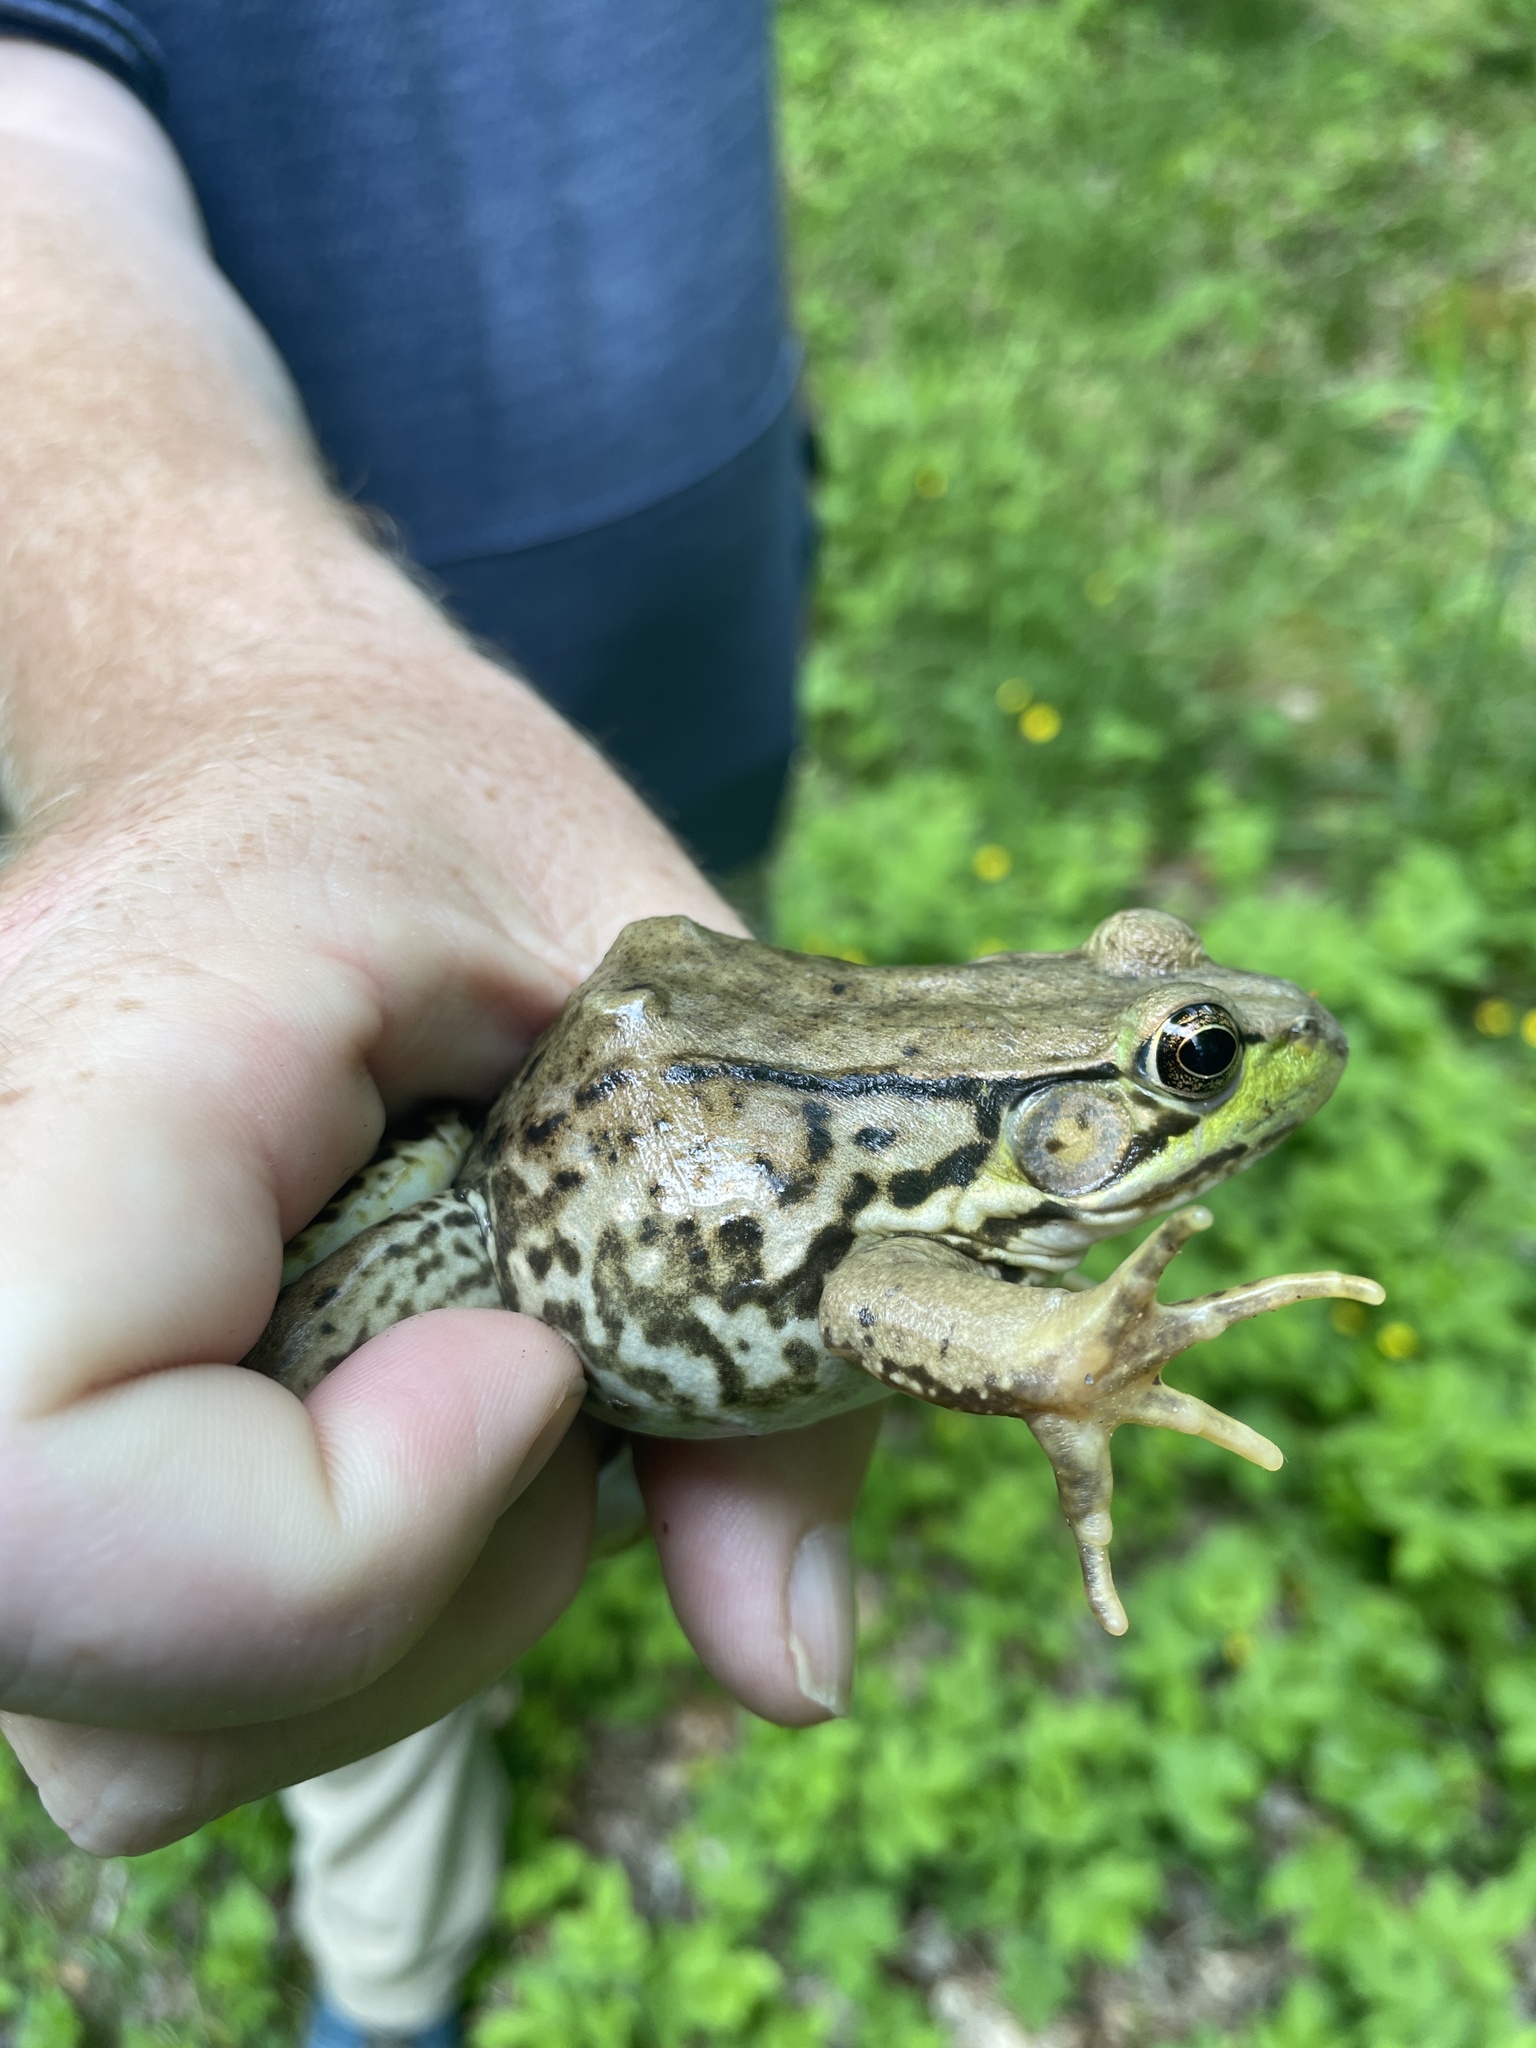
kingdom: Animalia
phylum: Chordata
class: Amphibia
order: Anura
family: Ranidae
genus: Lithobates
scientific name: Lithobates clamitans
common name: Green frog
